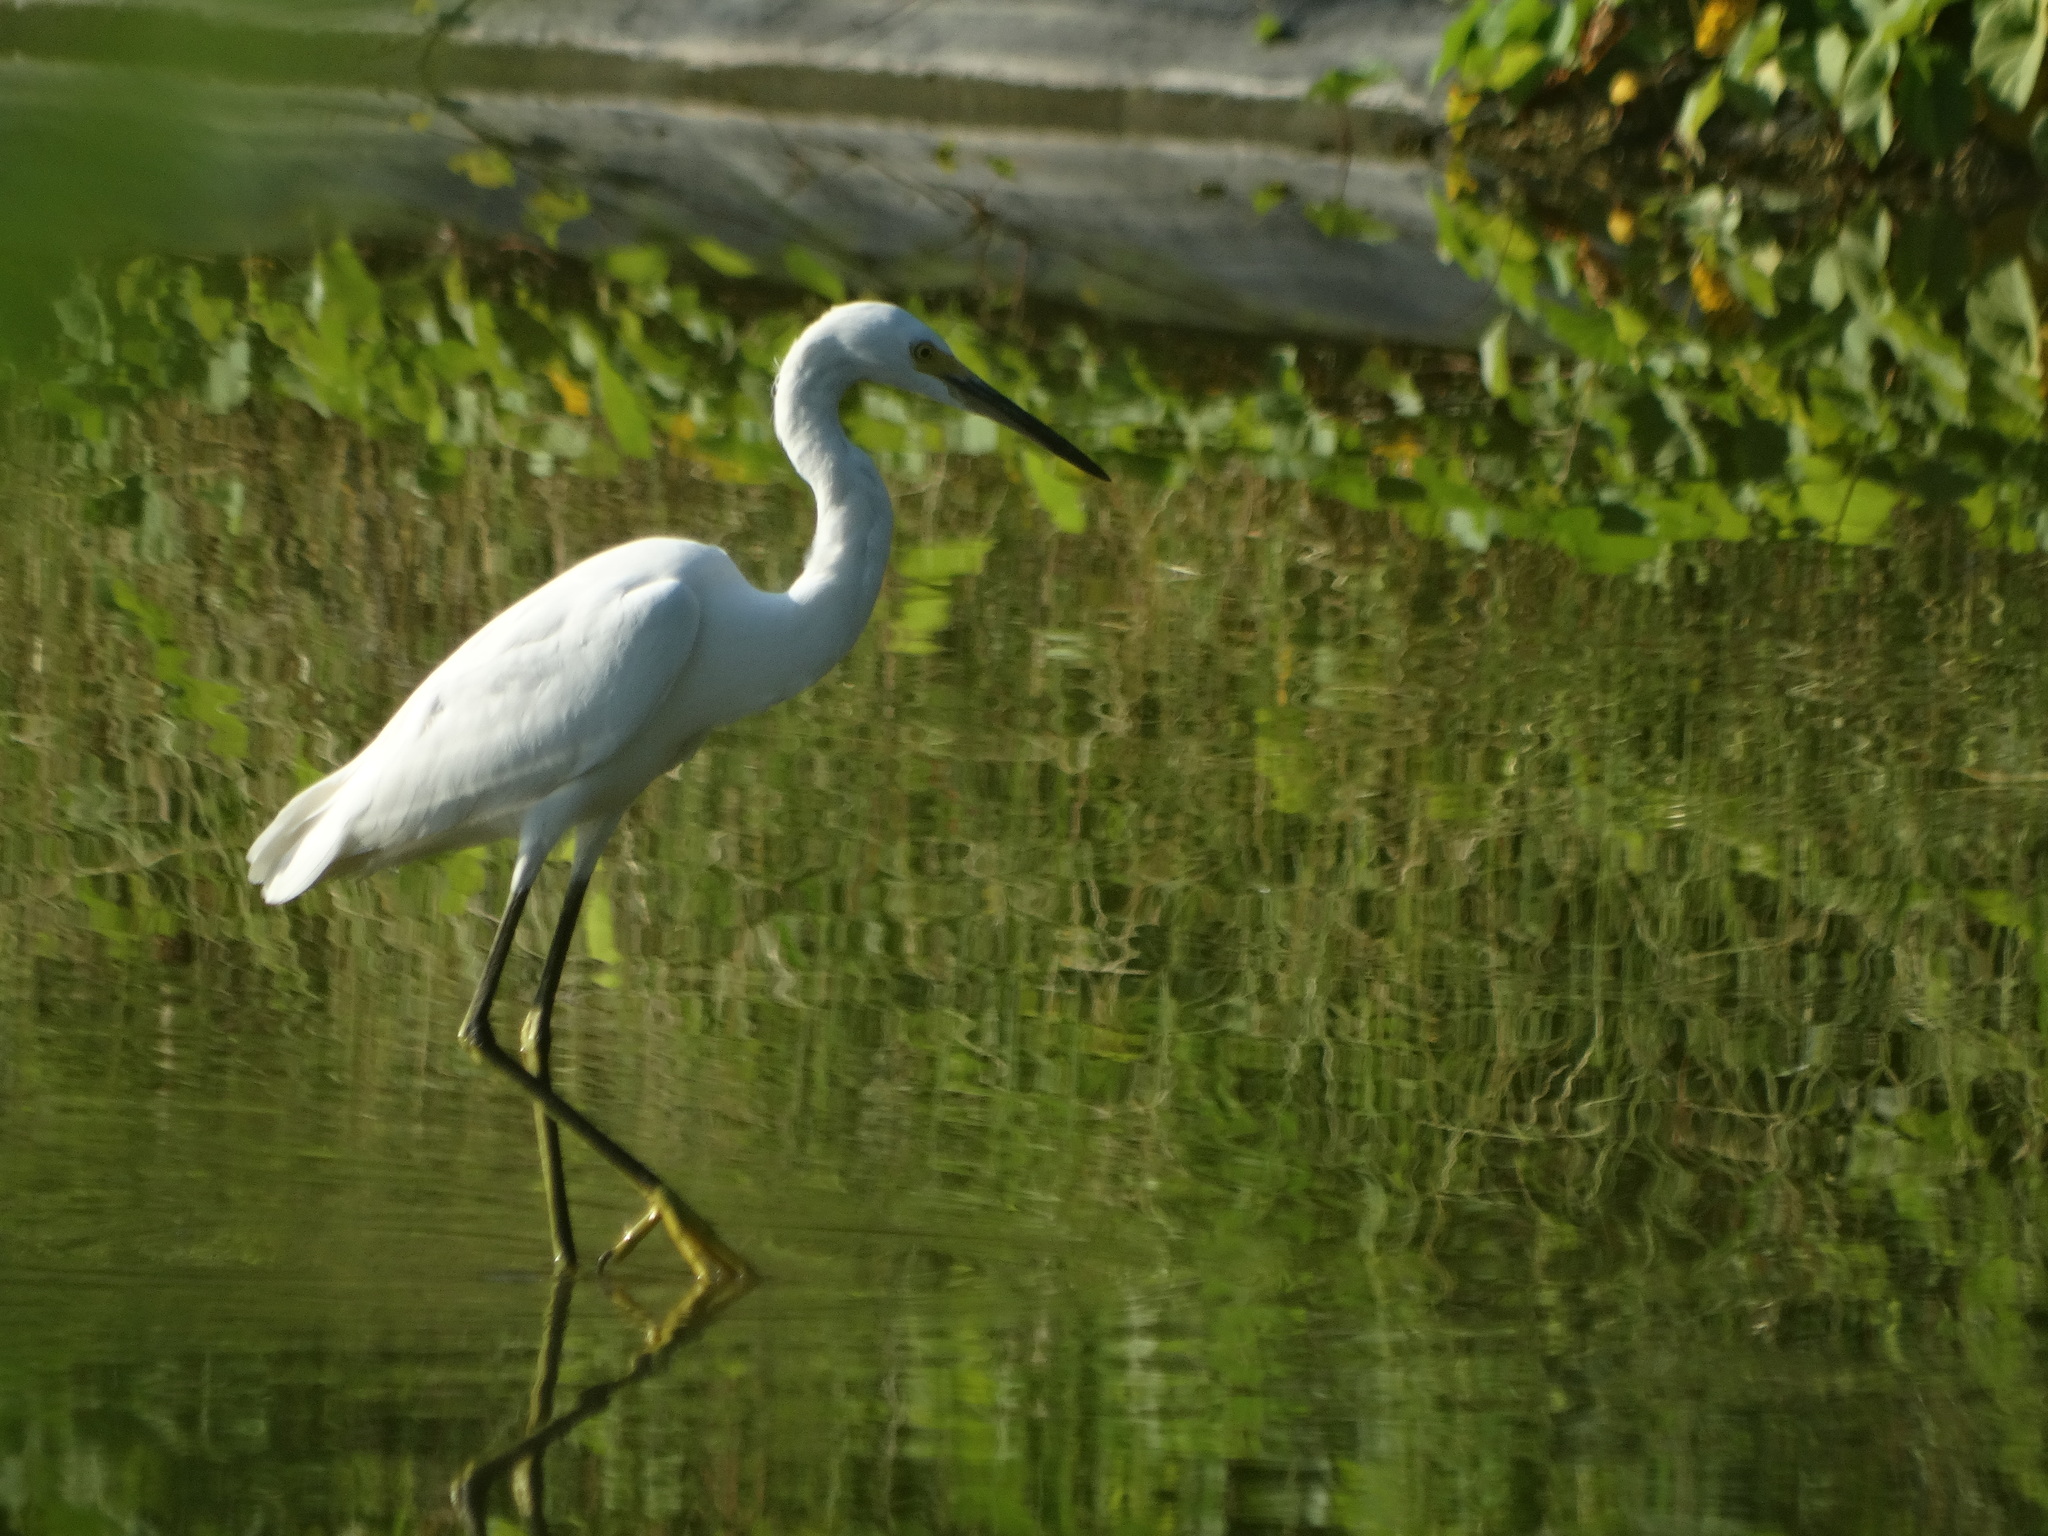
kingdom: Animalia
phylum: Chordata
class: Aves
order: Pelecaniformes
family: Ardeidae
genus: Egretta
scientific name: Egretta thula
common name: Snowy egret
